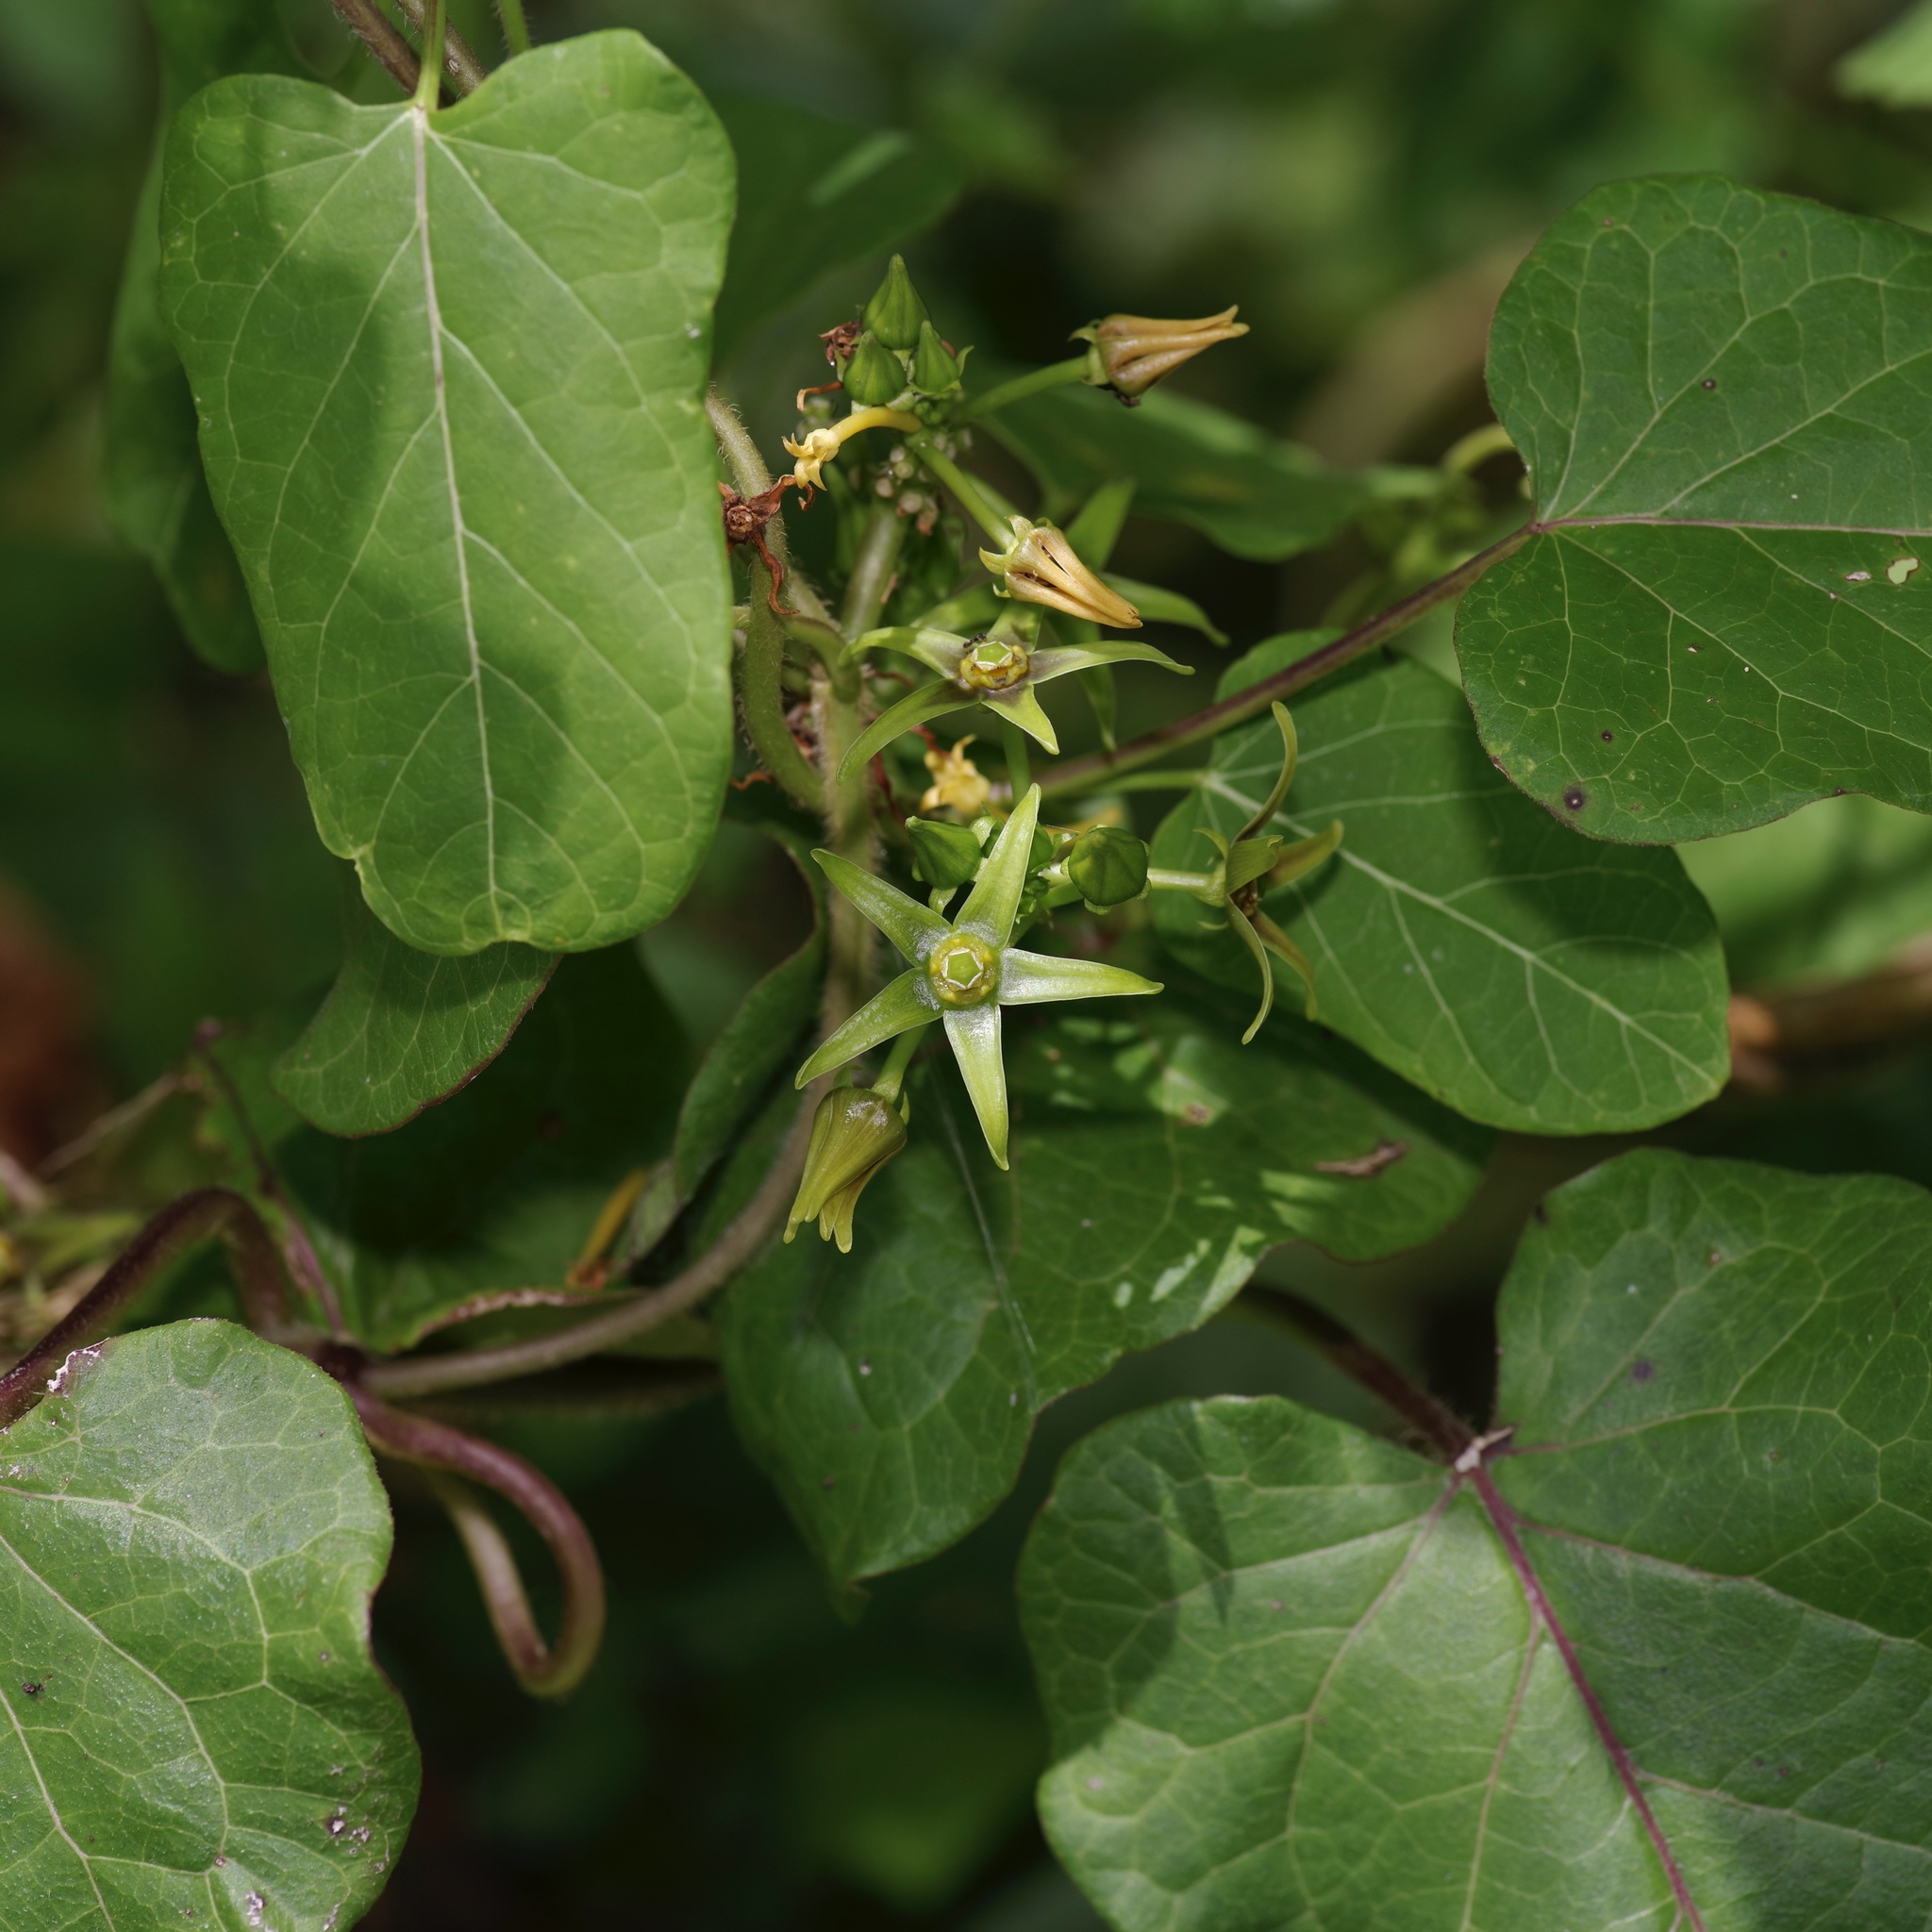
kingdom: Plantae
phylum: Tracheophyta
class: Magnoliopsida
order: Gentianales
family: Apocynaceae
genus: Gonolobus
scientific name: Gonolobus suberosus
